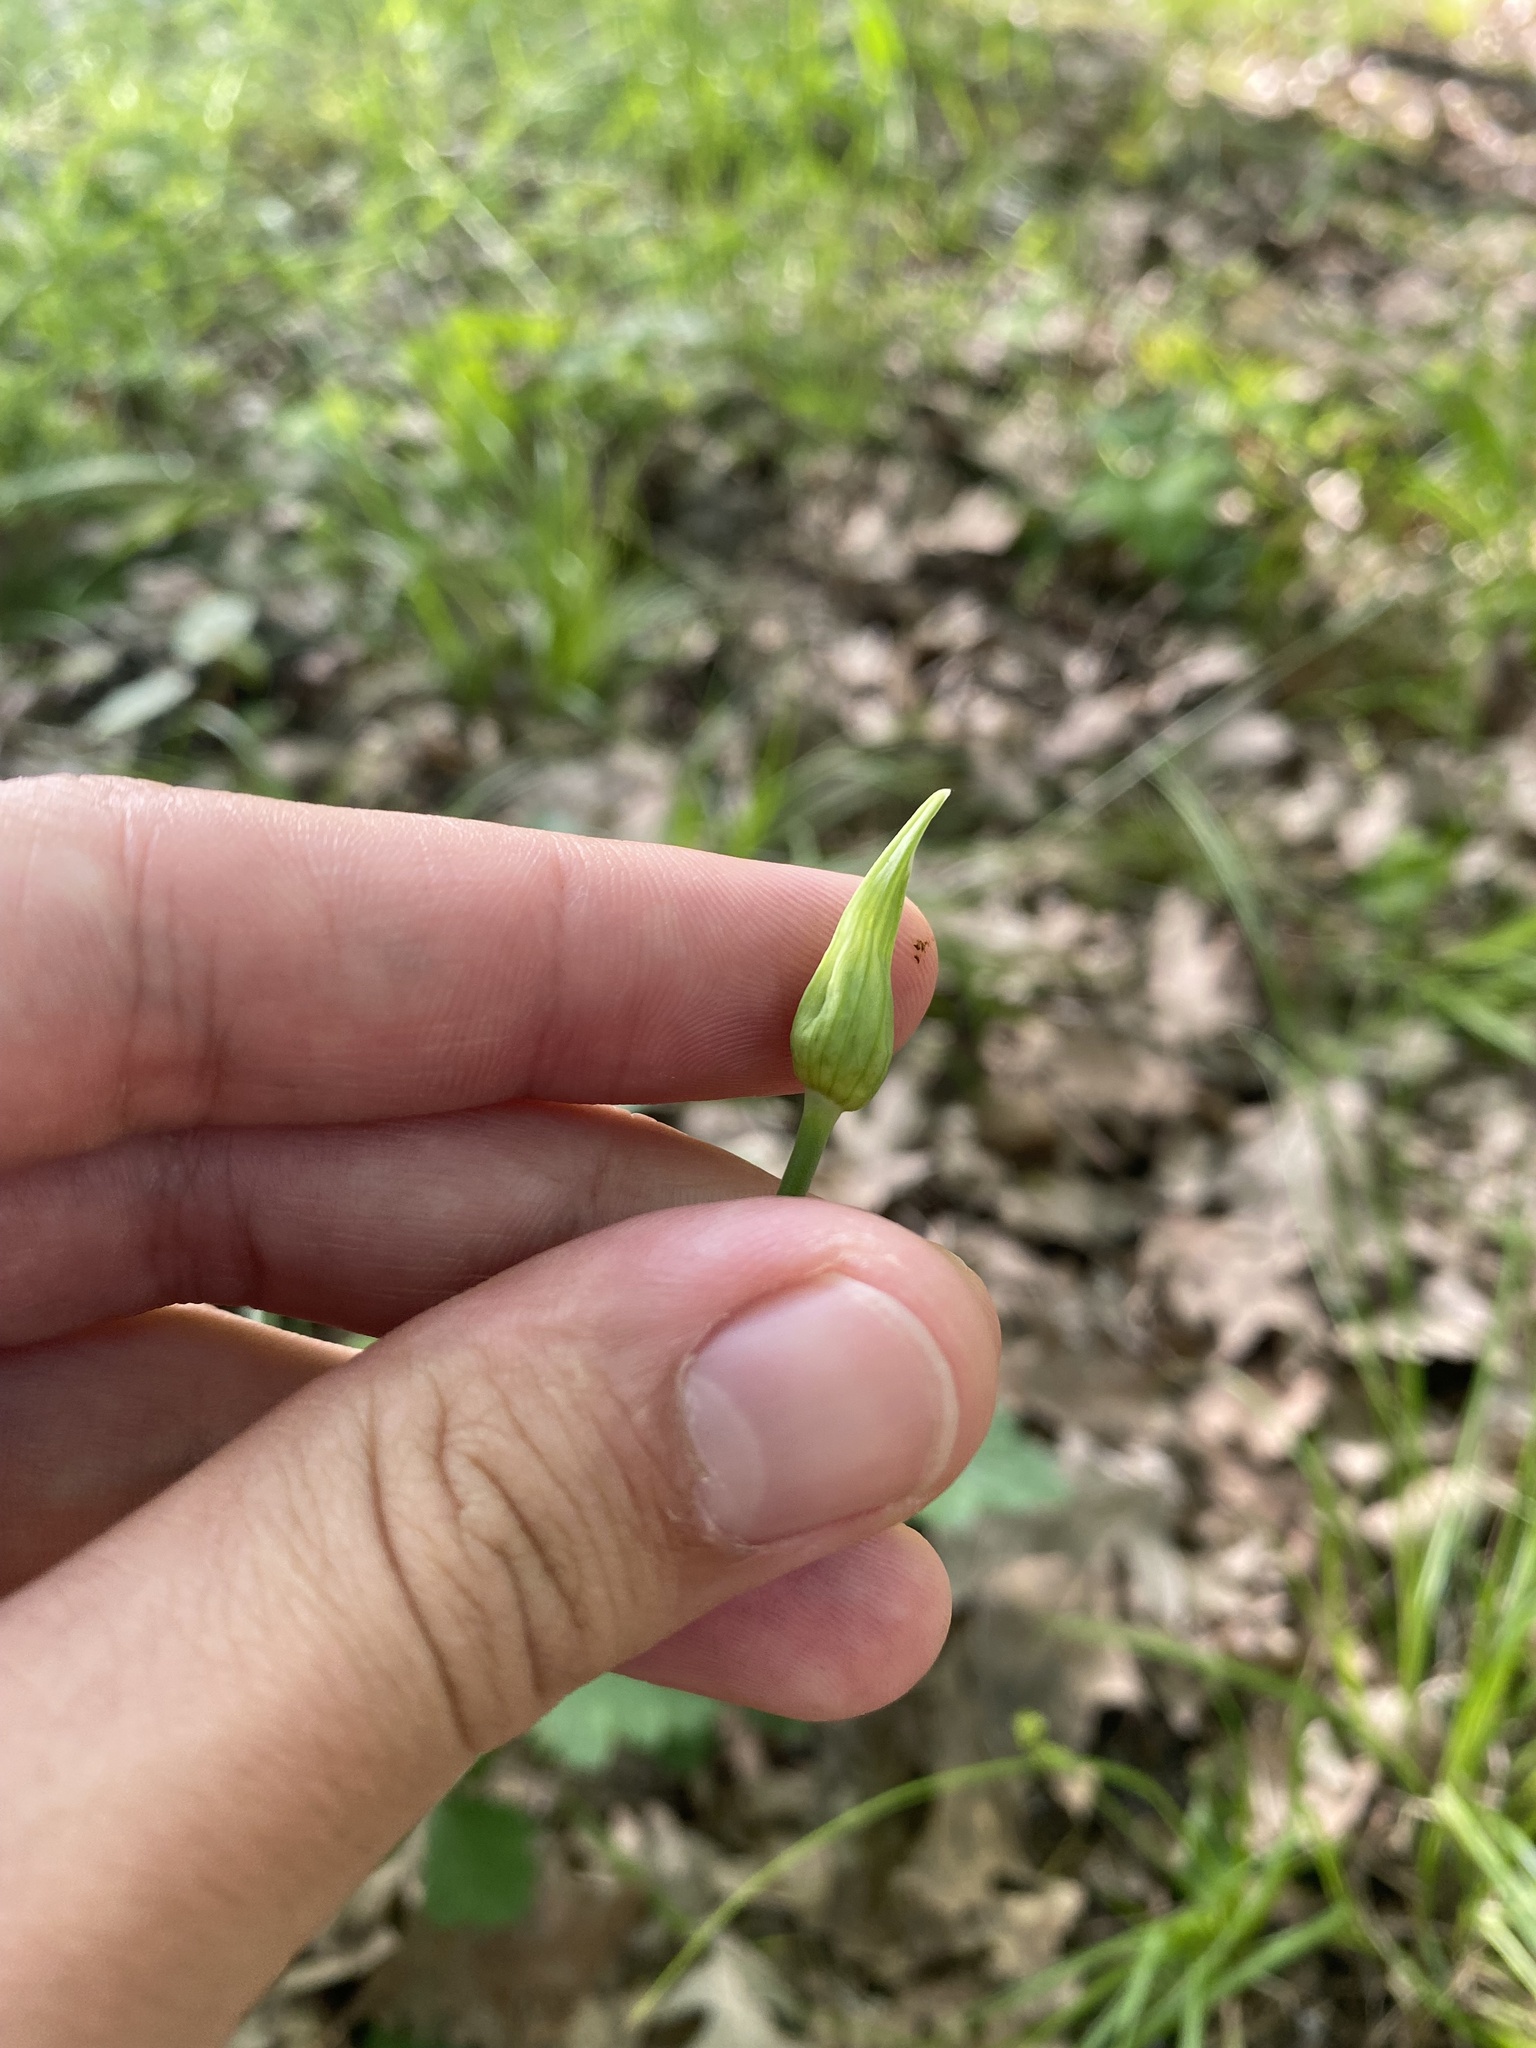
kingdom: Plantae
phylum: Tracheophyta
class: Liliopsida
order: Asparagales
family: Amaryllidaceae
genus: Allium
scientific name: Allium sativum
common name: Garlic
